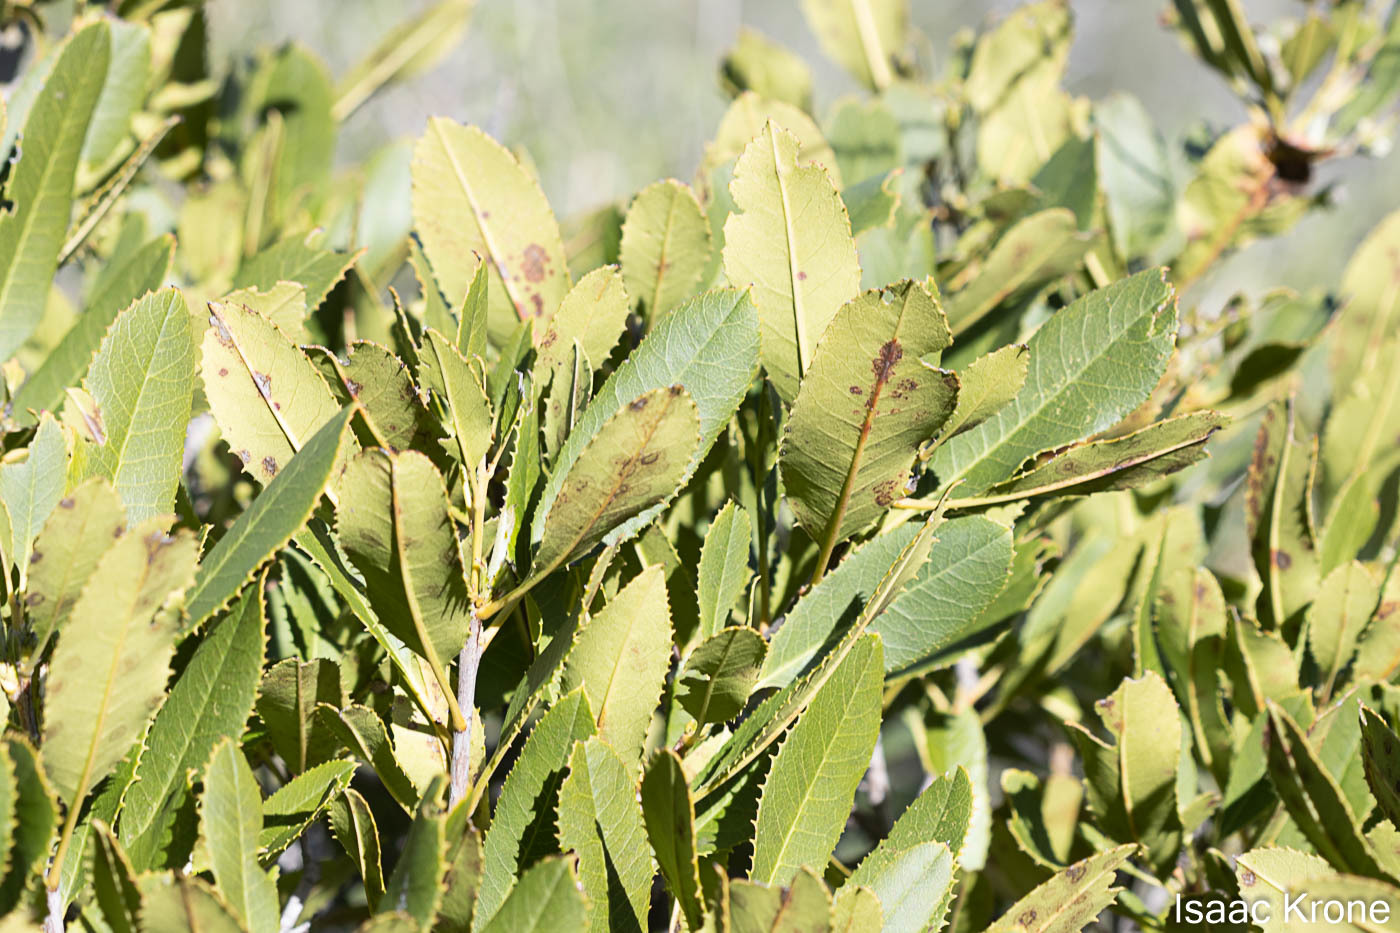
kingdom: Plantae
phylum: Tracheophyta
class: Magnoliopsida
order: Rosales
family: Rosaceae
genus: Heteromeles
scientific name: Heteromeles arbutifolia
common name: California-holly
